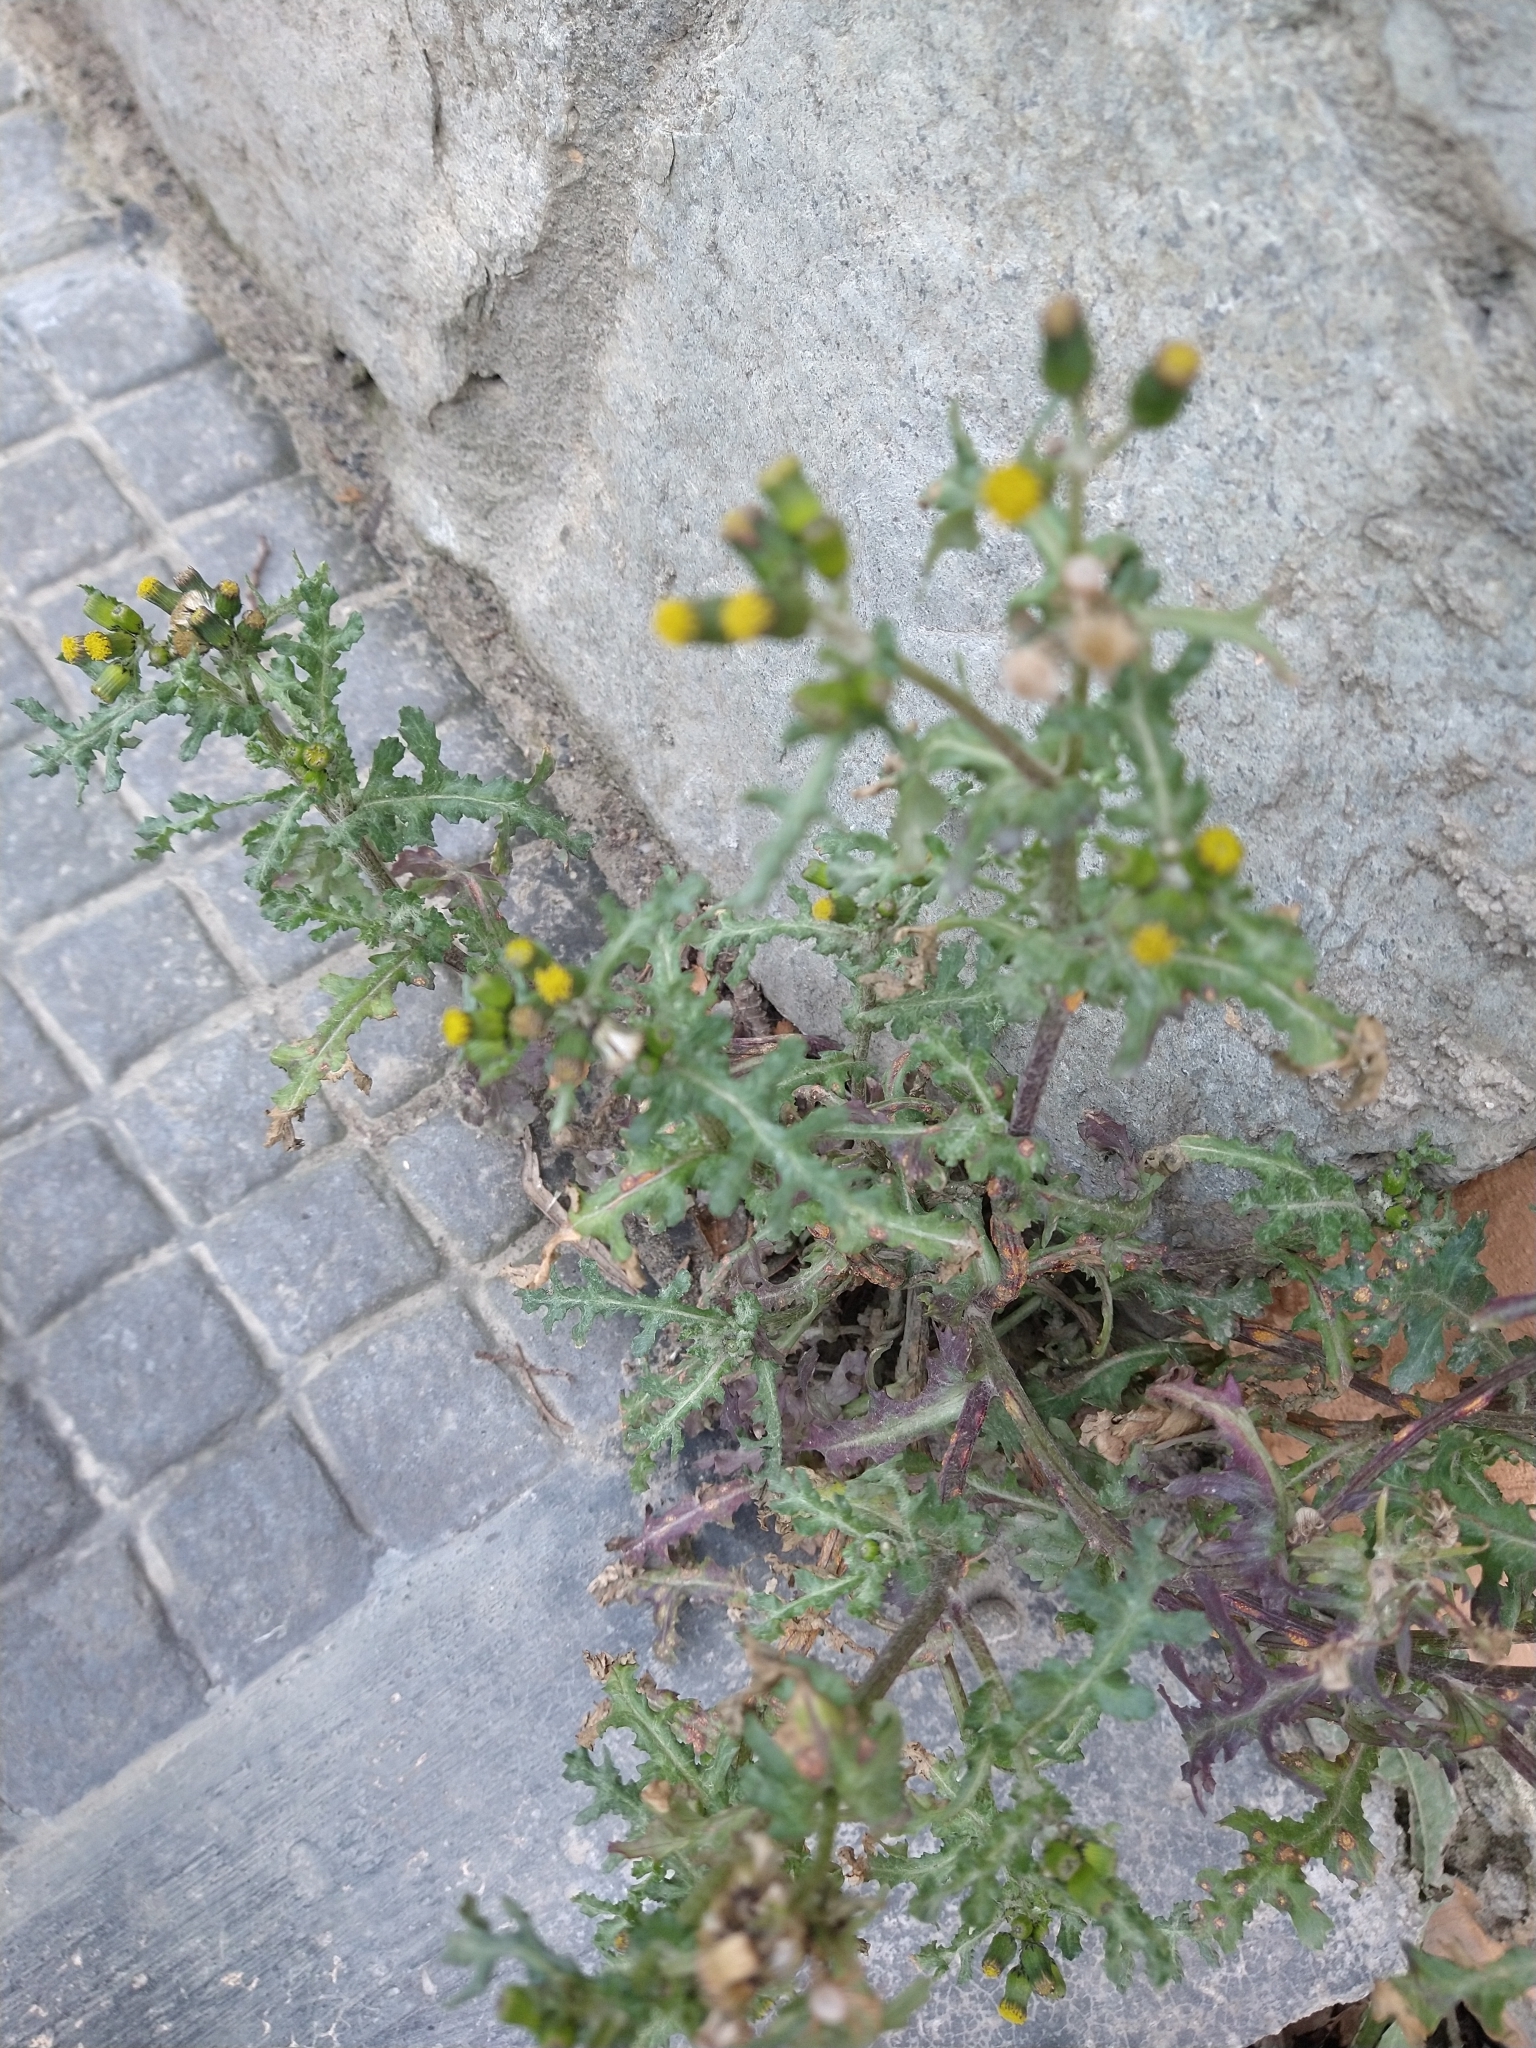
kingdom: Plantae
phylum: Tracheophyta
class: Magnoliopsida
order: Asterales
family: Asteraceae
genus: Senecio
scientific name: Senecio vulgaris
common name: Old-man-in-the-spring
